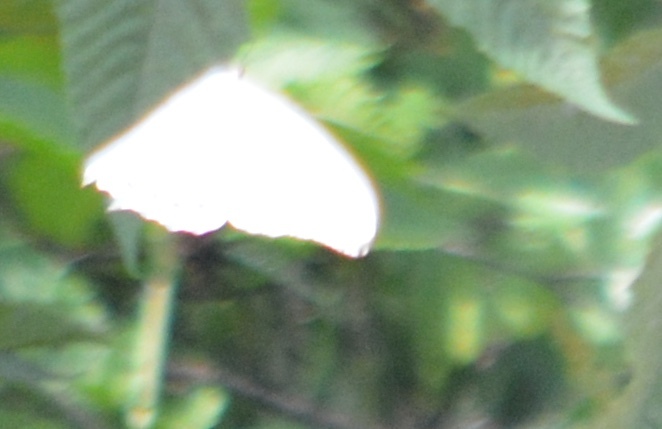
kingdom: Animalia
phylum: Arthropoda
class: Insecta
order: Lepidoptera
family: Nymphalidae
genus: Morpho
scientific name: Morpho polyphemus
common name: White morpho
